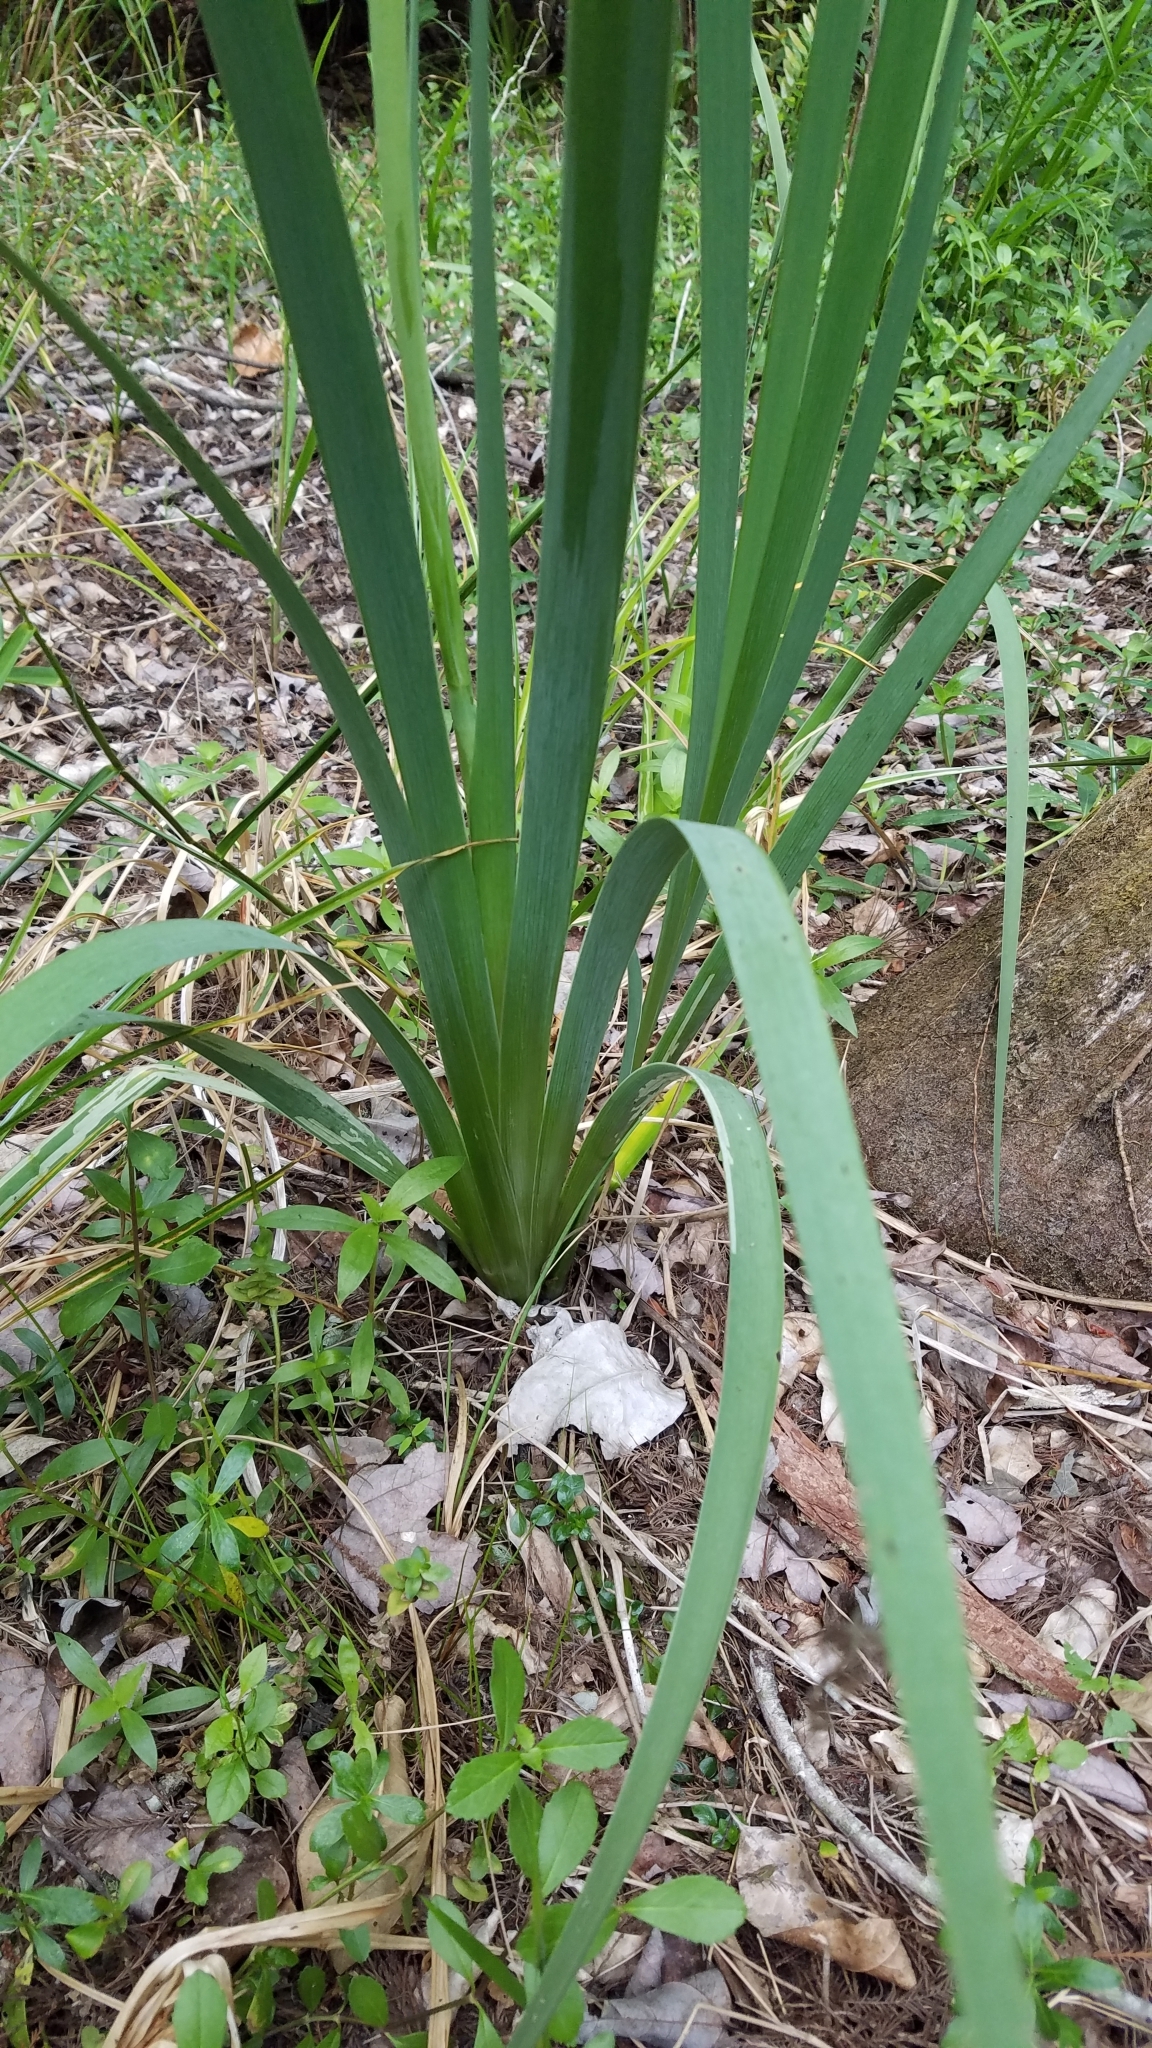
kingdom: Plantae
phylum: Tracheophyta
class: Liliopsida
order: Asparagales
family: Iridaceae
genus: Iris
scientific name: Iris savannarum
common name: Prairie iris
